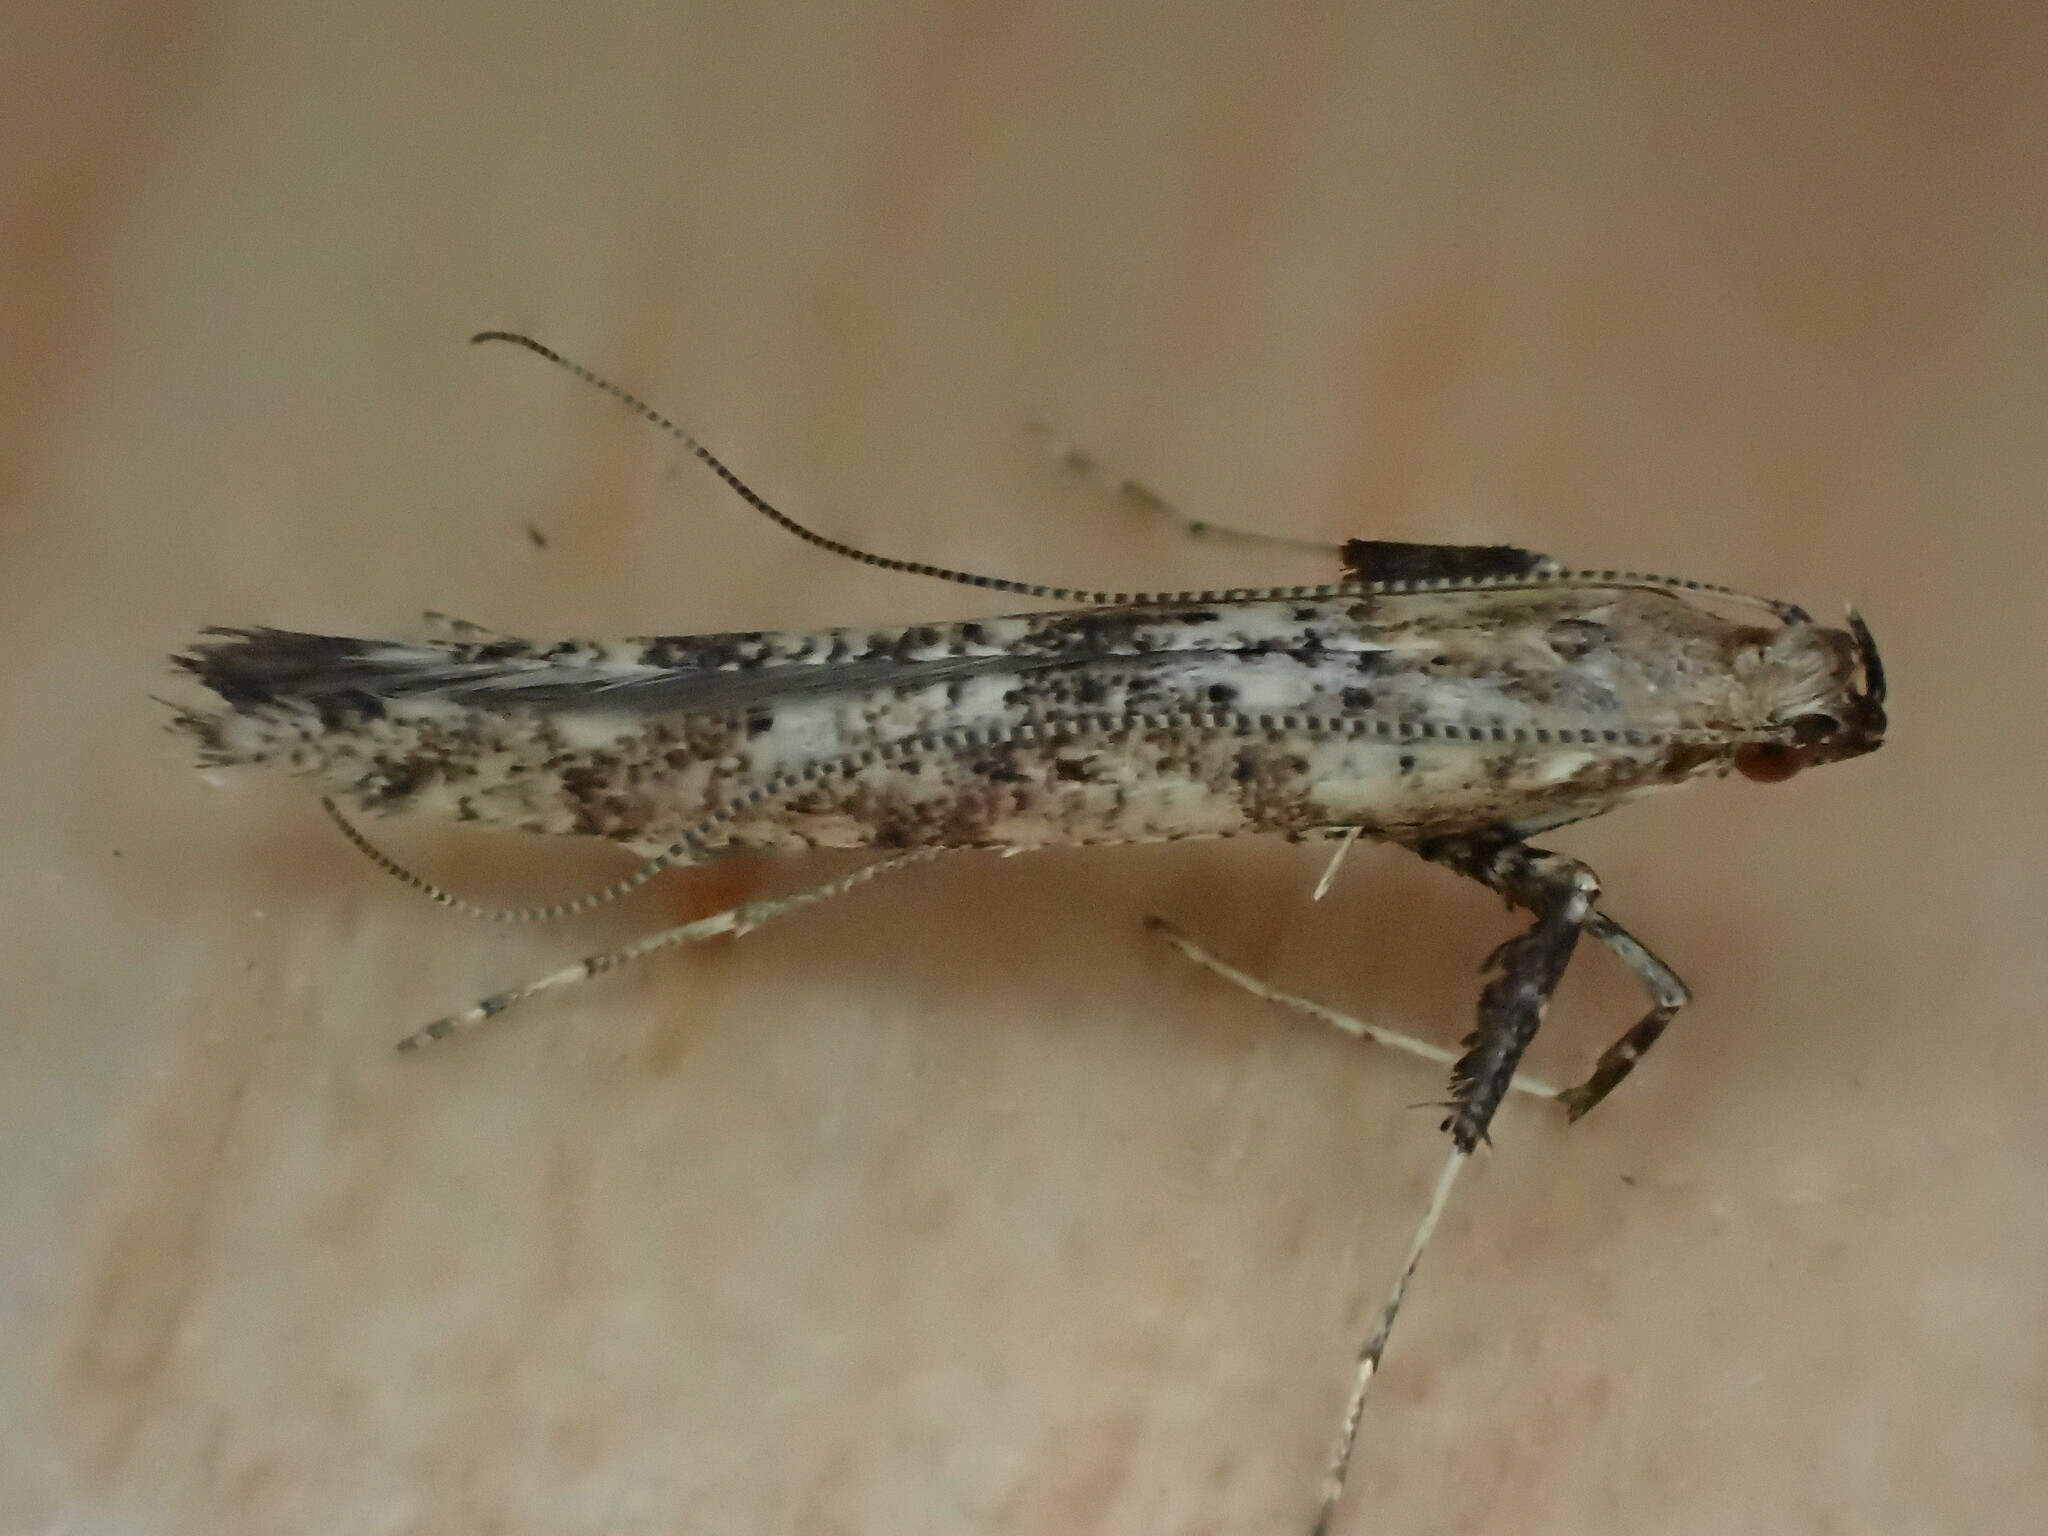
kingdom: Animalia
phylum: Arthropoda
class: Insecta
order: Lepidoptera
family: Gracillariidae
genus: Gracillaria
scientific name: Gracillaria syringella
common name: Common slender
